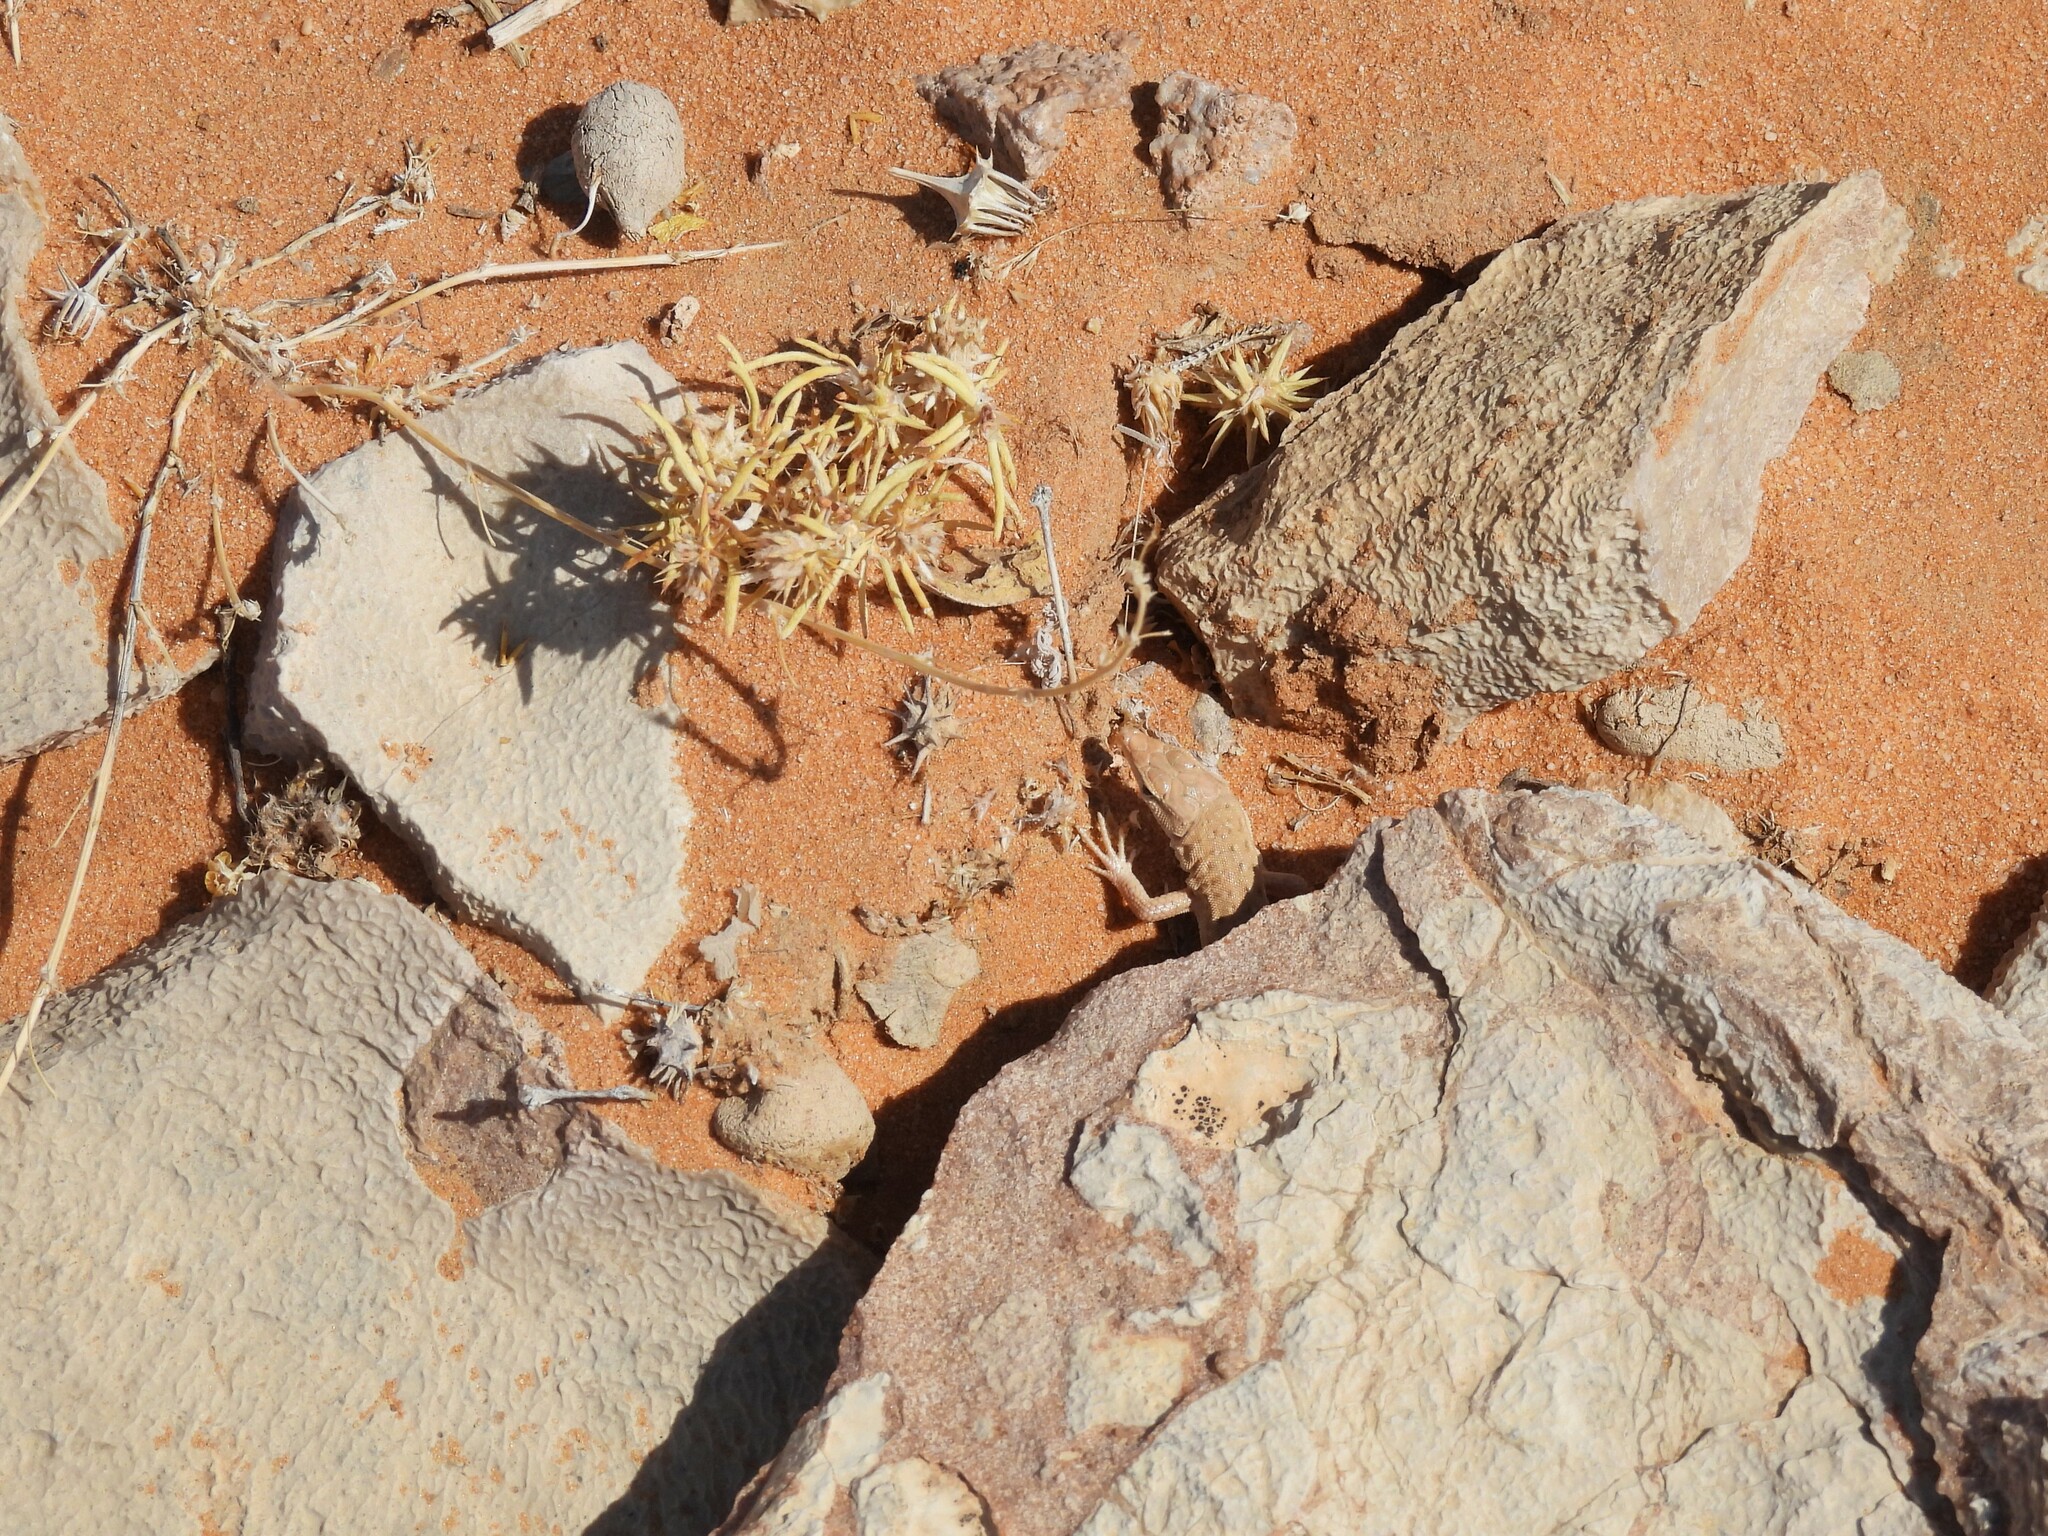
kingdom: Animalia
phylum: Chordata
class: Squamata
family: Lacertidae
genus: Mesalina
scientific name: Mesalina guttulata
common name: Desert lacerta
